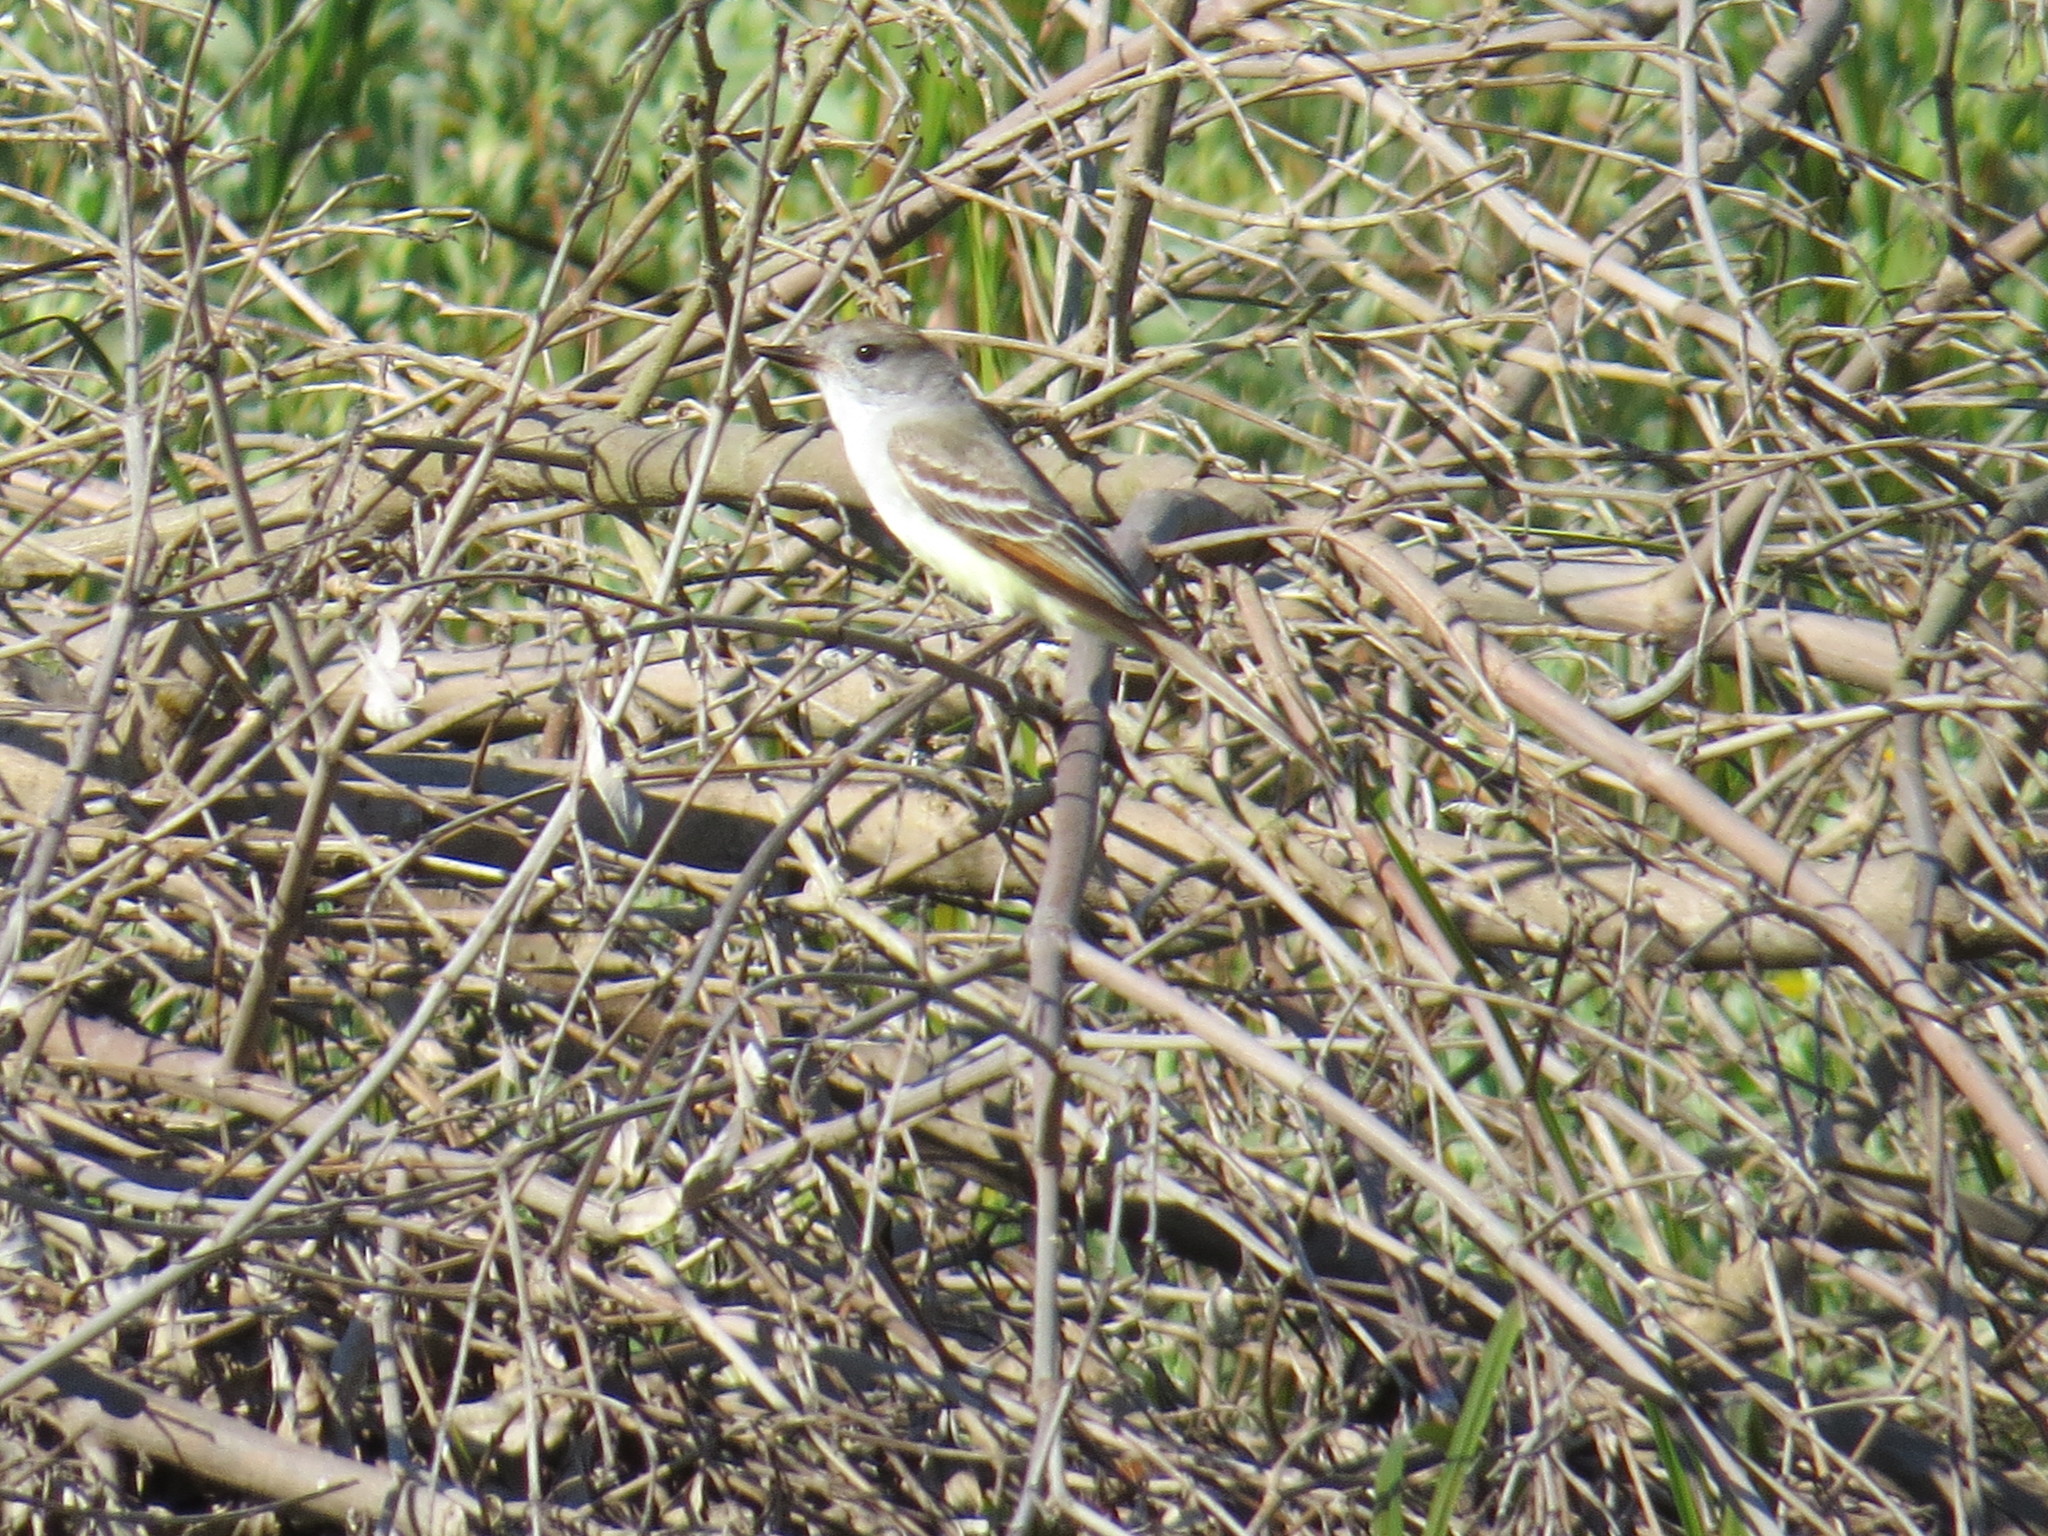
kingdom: Animalia
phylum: Chordata
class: Aves
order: Passeriformes
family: Tyrannidae
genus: Myiarchus
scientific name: Myiarchus cinerascens
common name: Ash-throated flycatcher
